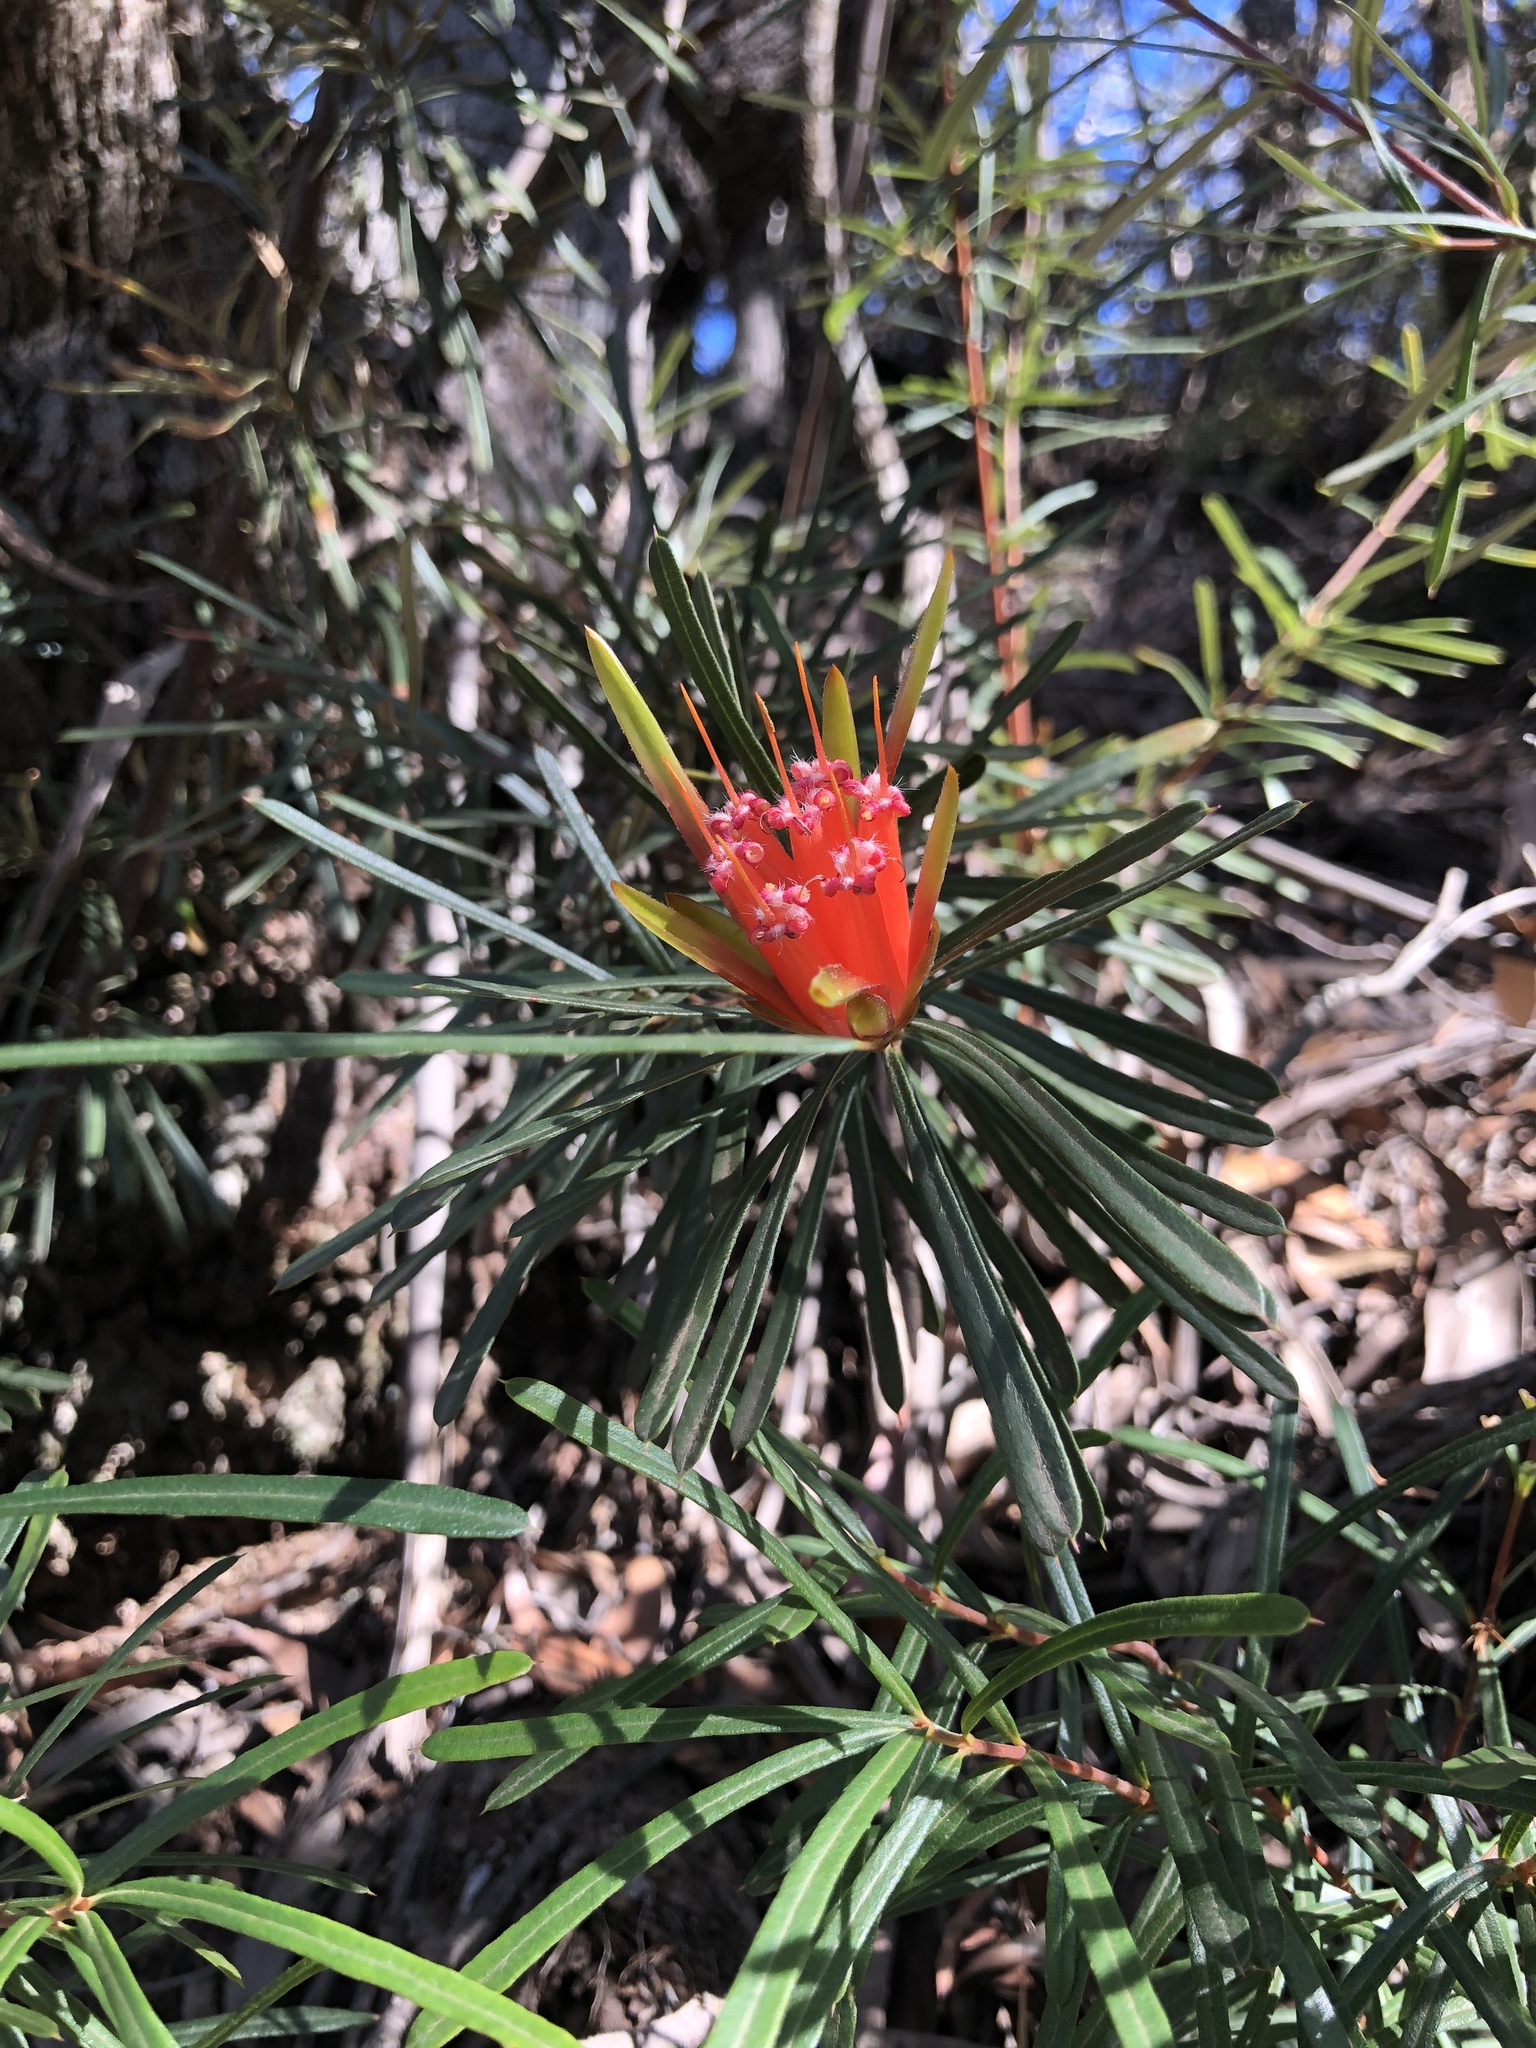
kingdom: Plantae
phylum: Tracheophyta
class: Magnoliopsida
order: Proteales
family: Proteaceae
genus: Lambertia
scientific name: Lambertia formosa
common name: Mountain-devil
